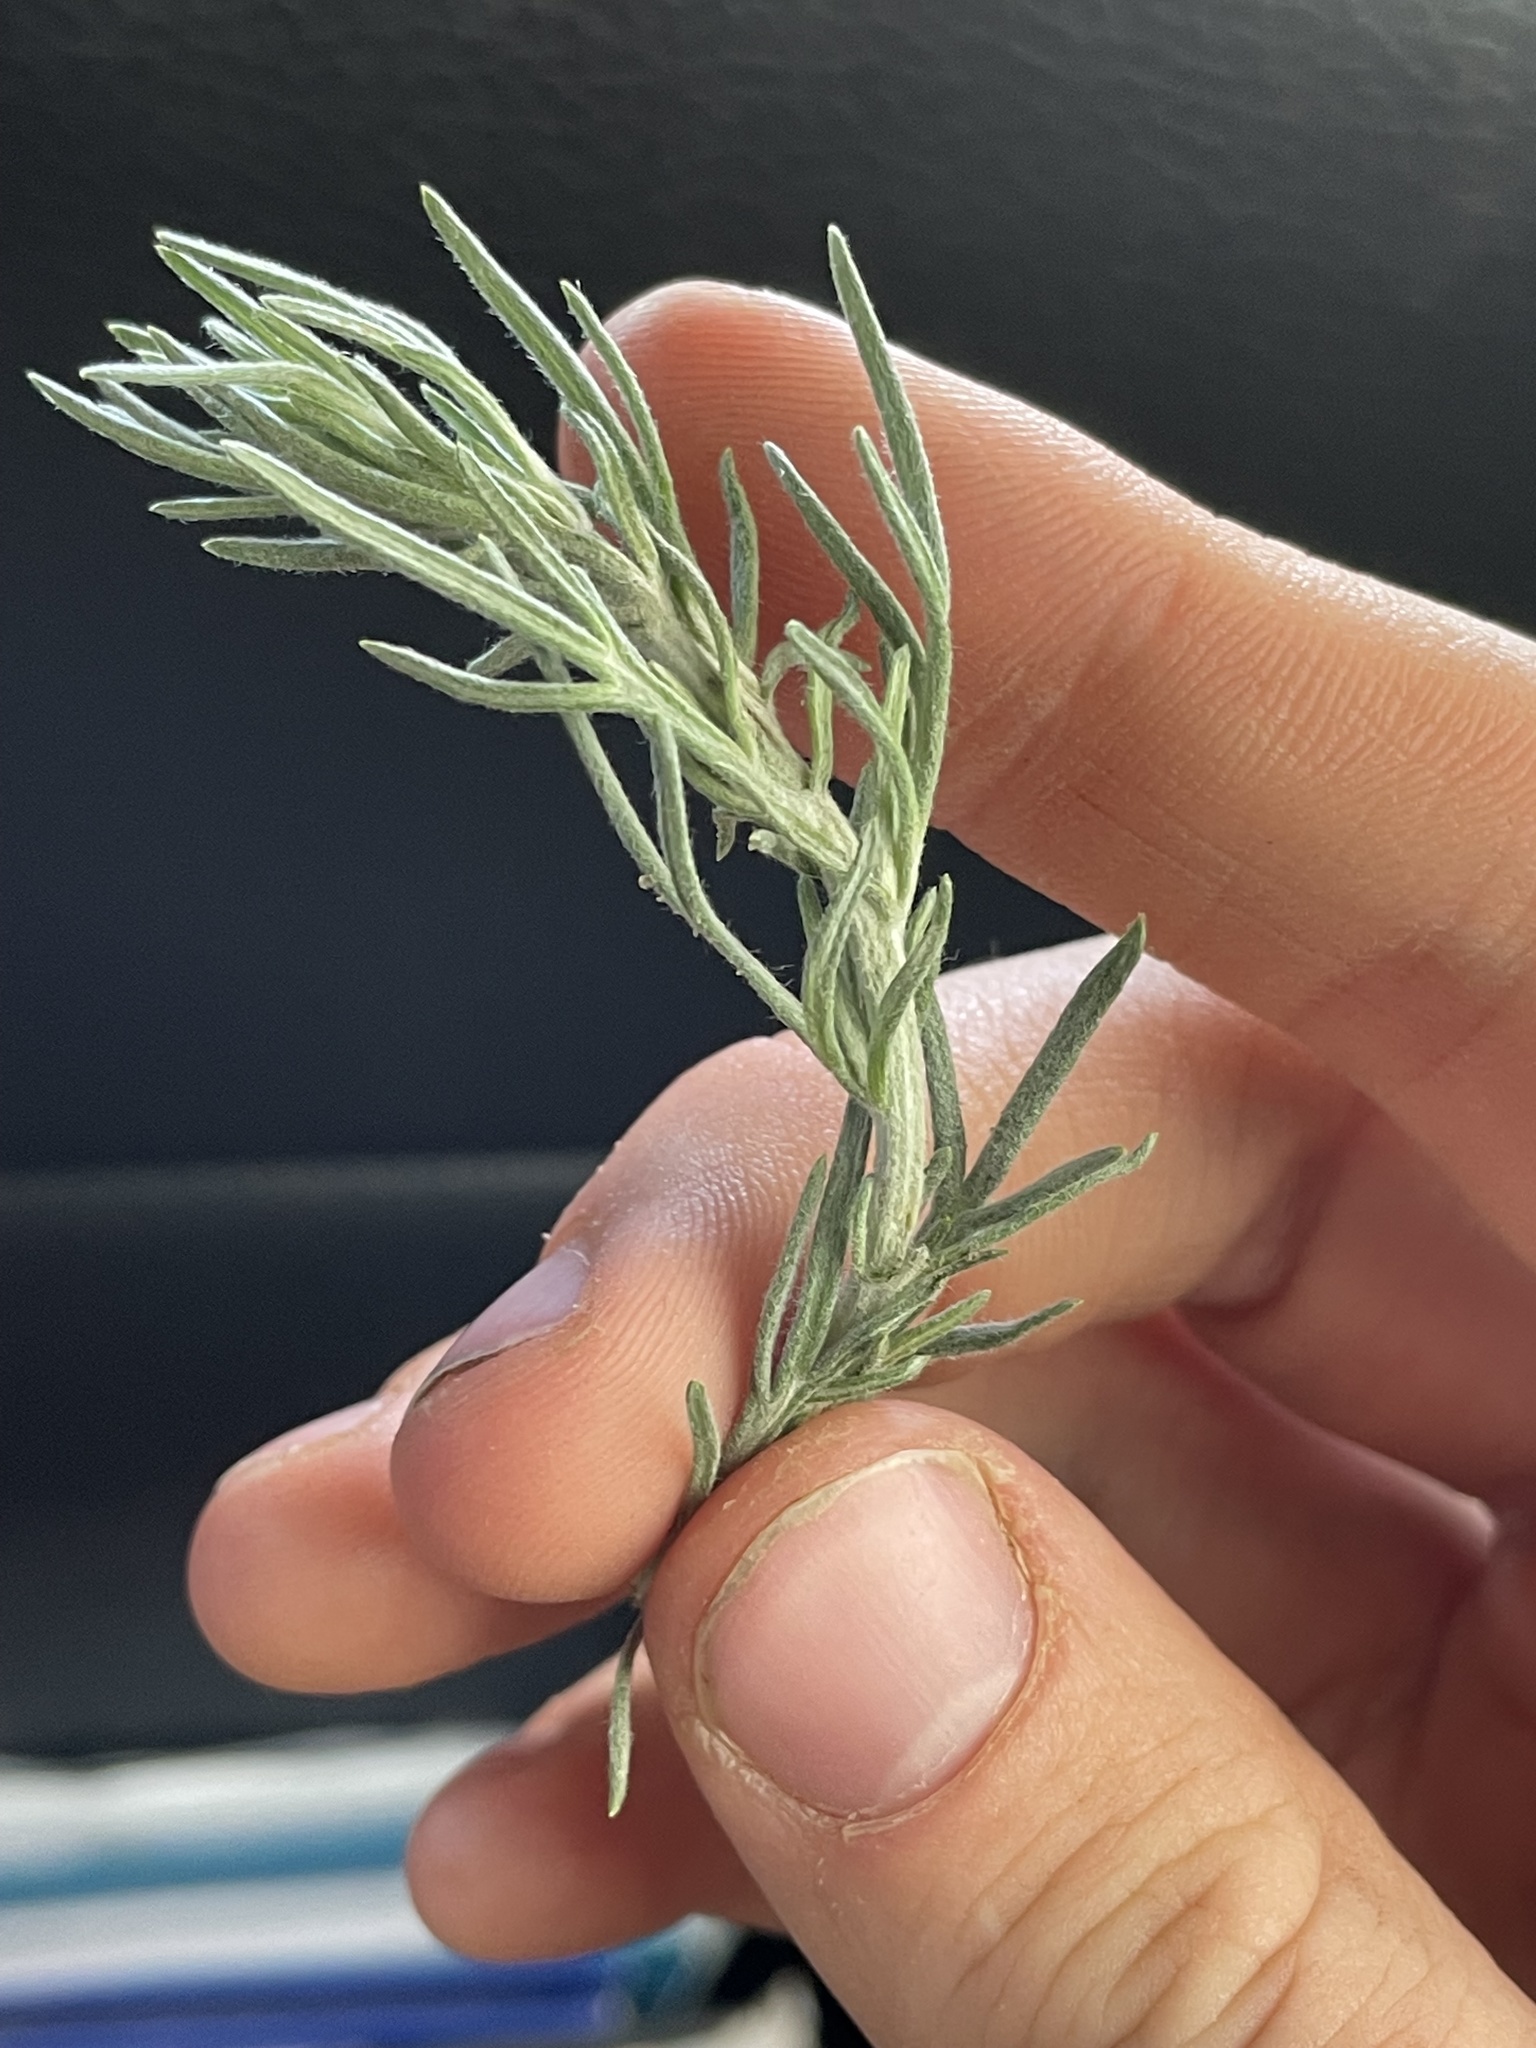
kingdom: Plantae
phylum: Tracheophyta
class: Magnoliopsida
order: Asterales
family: Asteraceae
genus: Artemisia
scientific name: Artemisia carruthii
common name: Carruth wormwood
